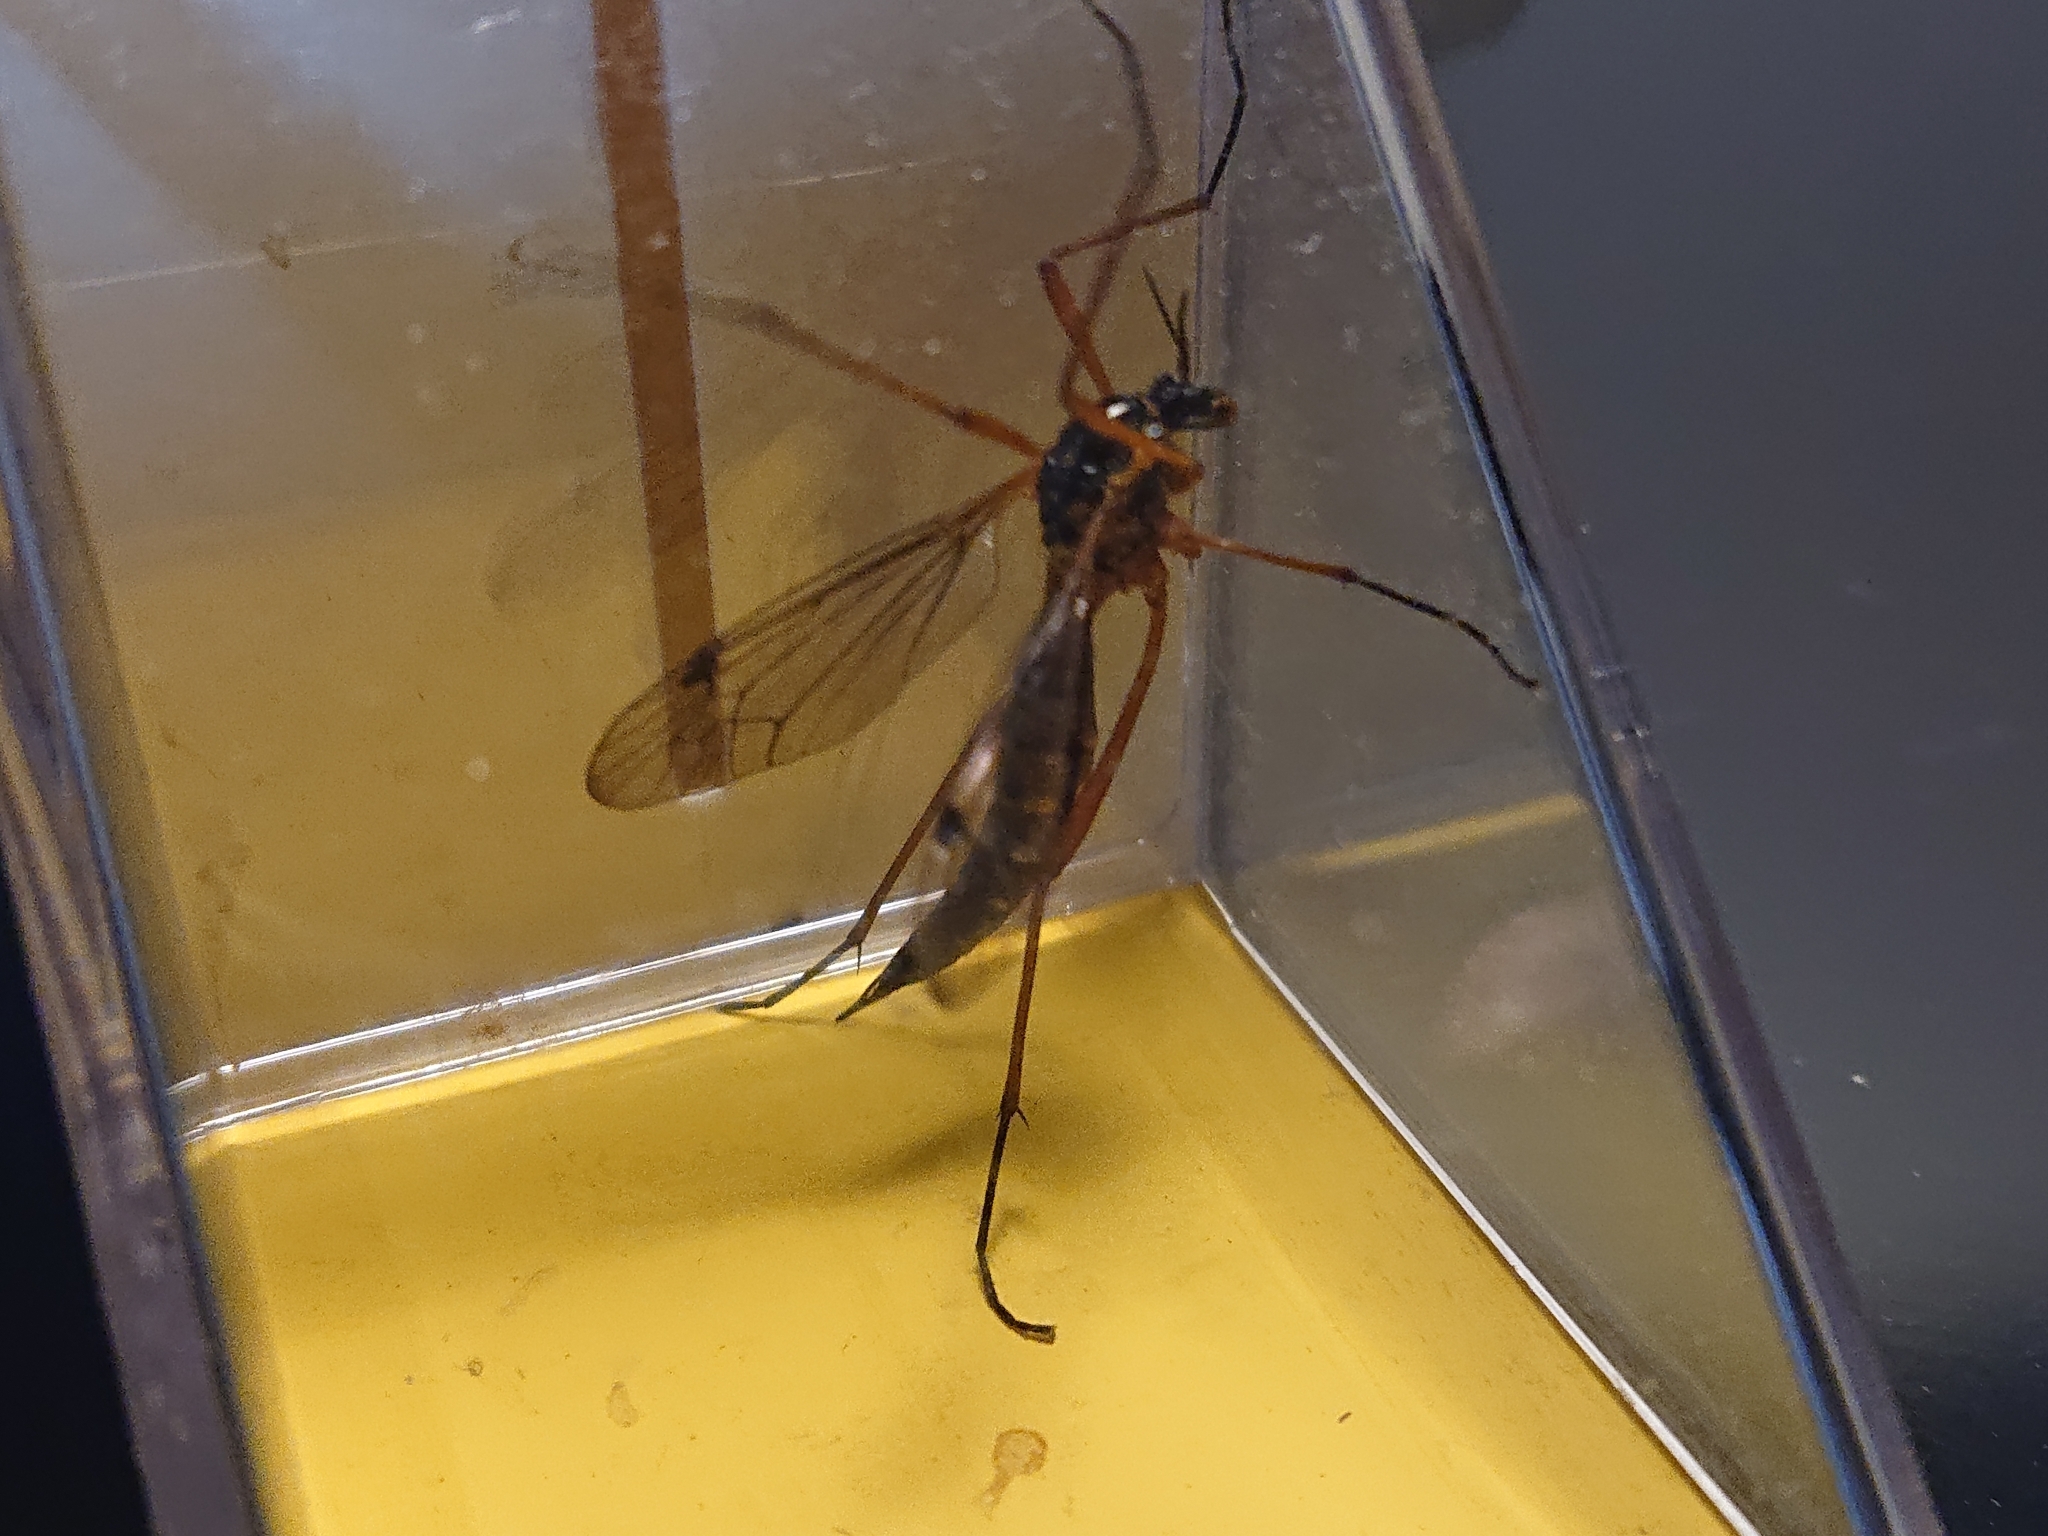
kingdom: Animalia
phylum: Arthropoda
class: Insecta
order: Diptera
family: Tipulidae
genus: Ctenophora
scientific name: Ctenophora pectinicornis
